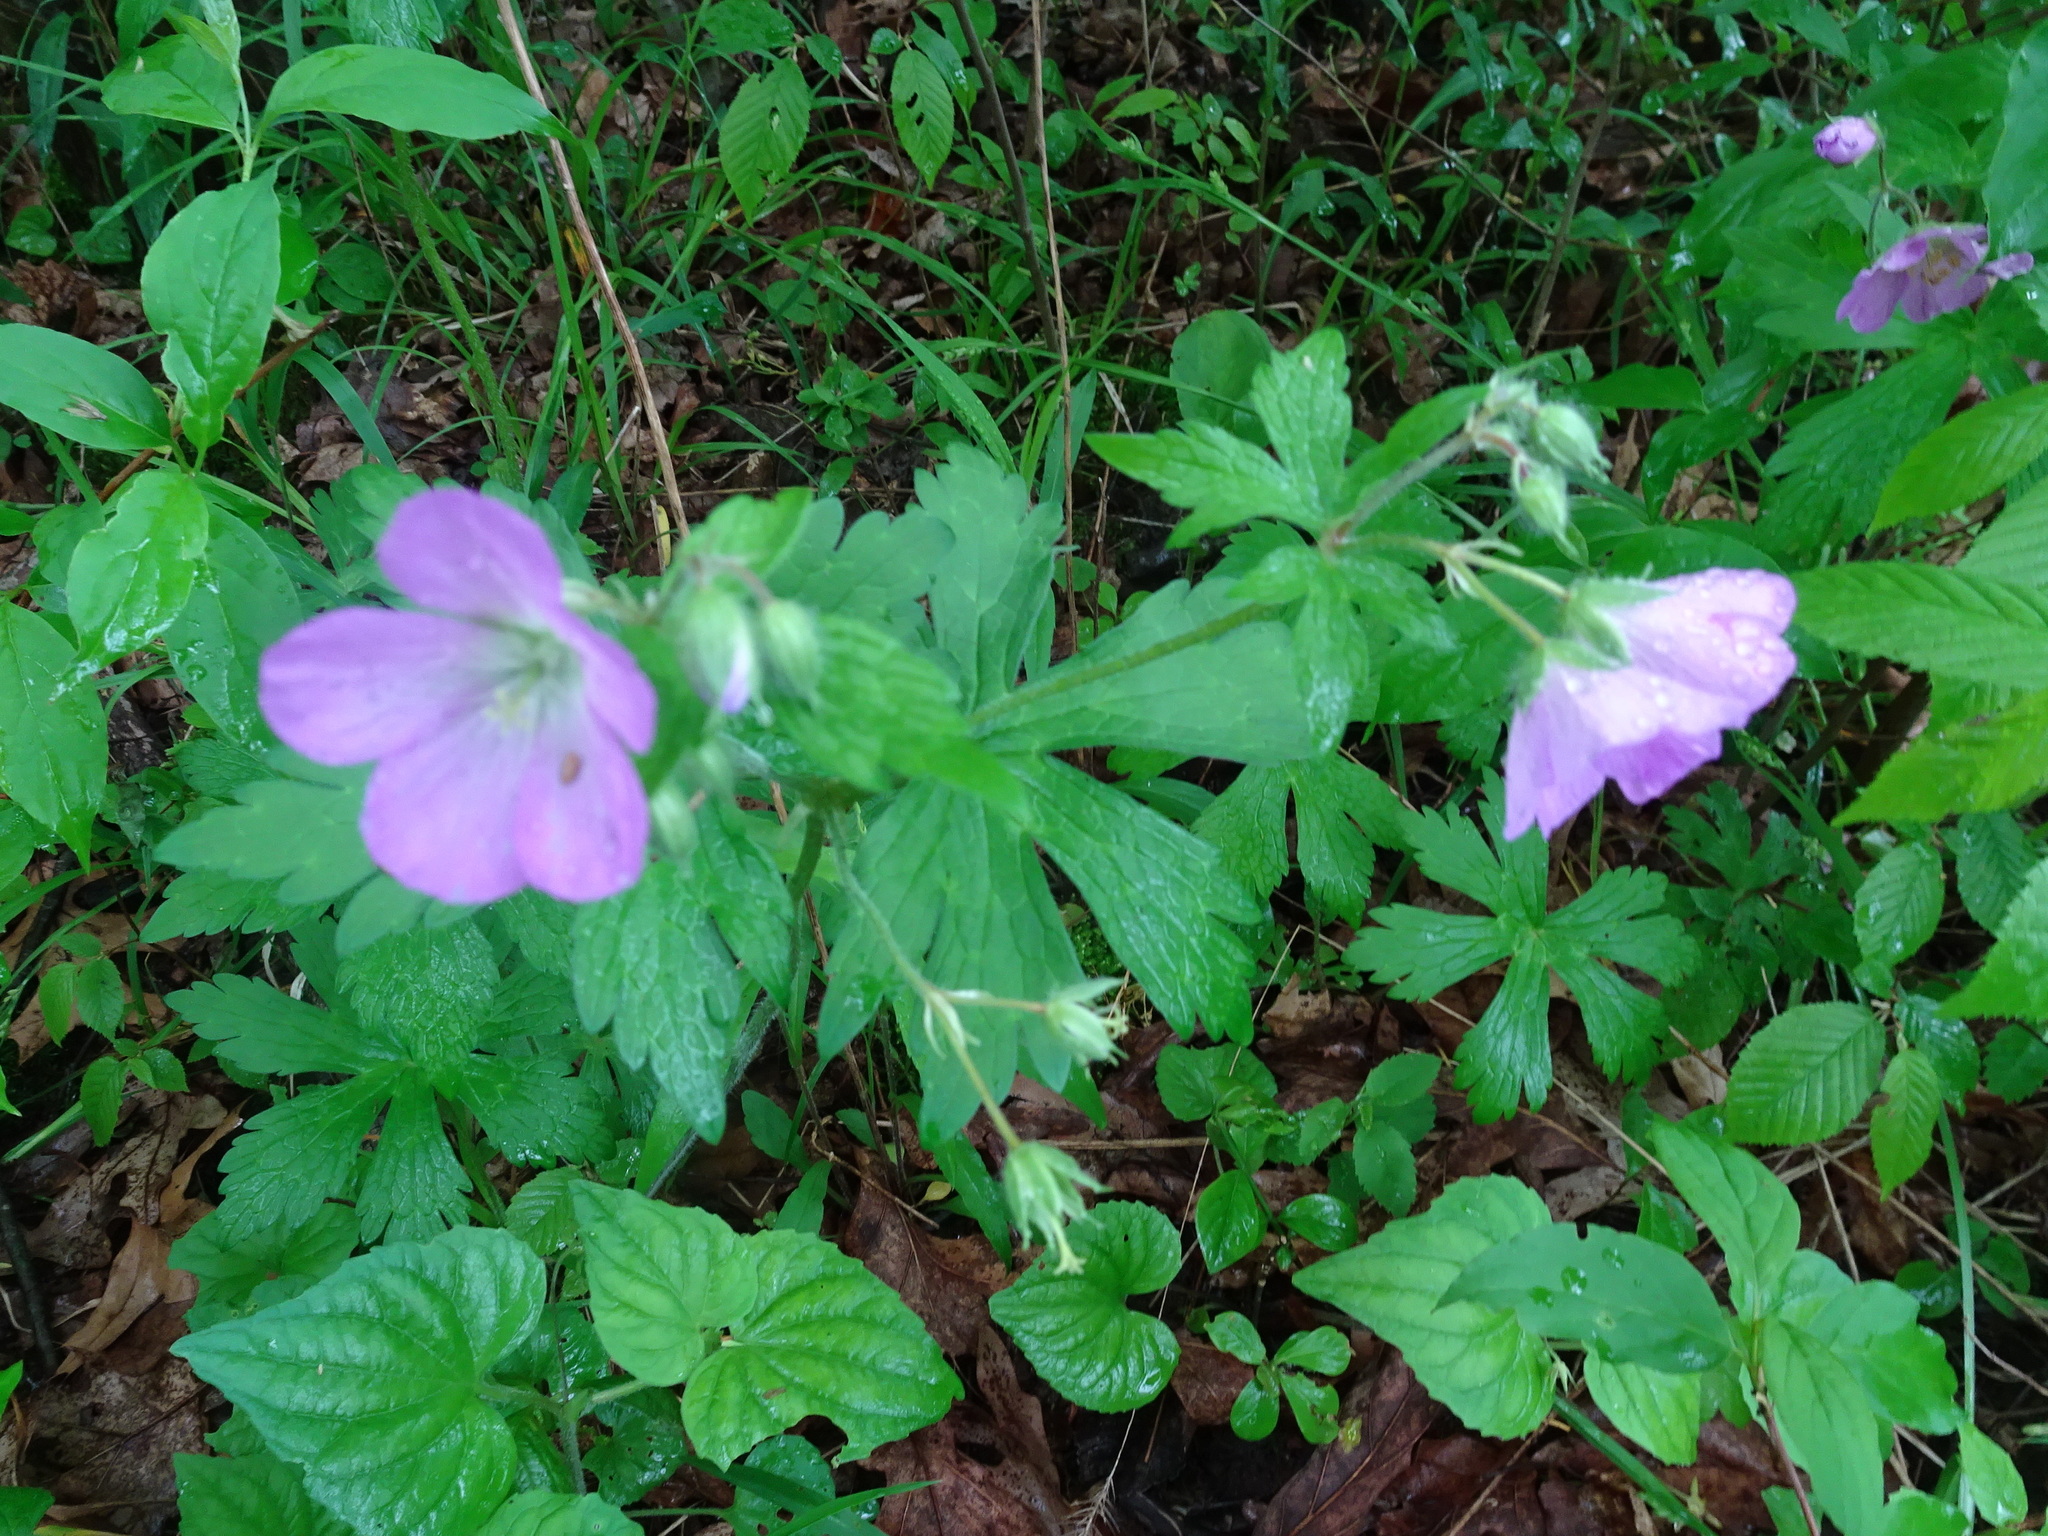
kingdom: Plantae
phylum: Tracheophyta
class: Magnoliopsida
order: Geraniales
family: Geraniaceae
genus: Geranium
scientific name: Geranium maculatum
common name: Spotted geranium
